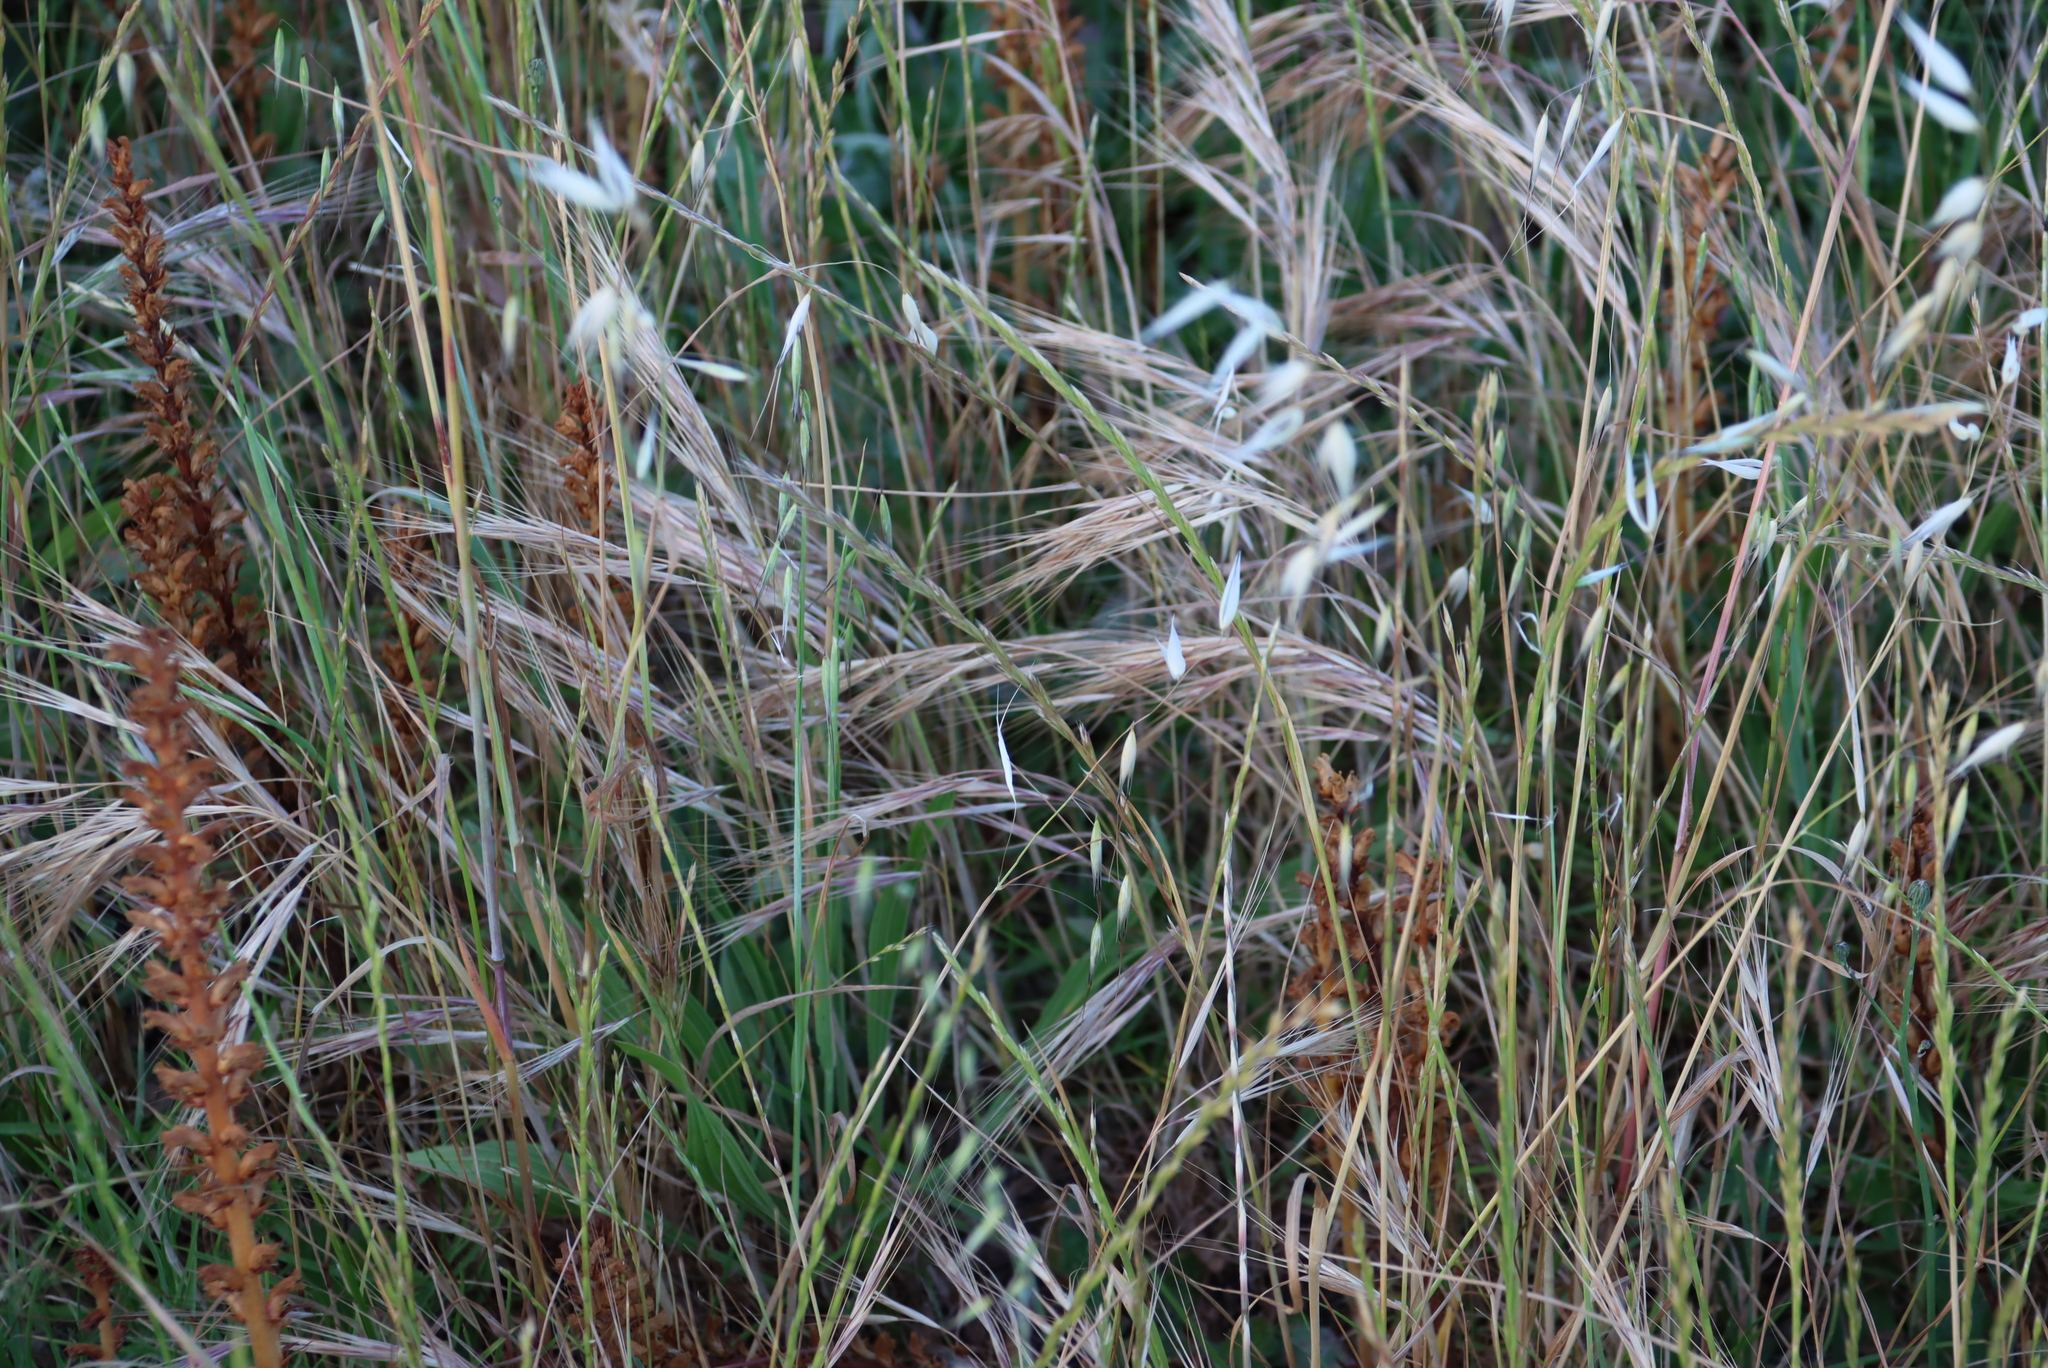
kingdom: Plantae
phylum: Tracheophyta
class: Liliopsida
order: Poales
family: Poaceae
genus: Bromus
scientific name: Bromus diandrus
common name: Ripgut brome
